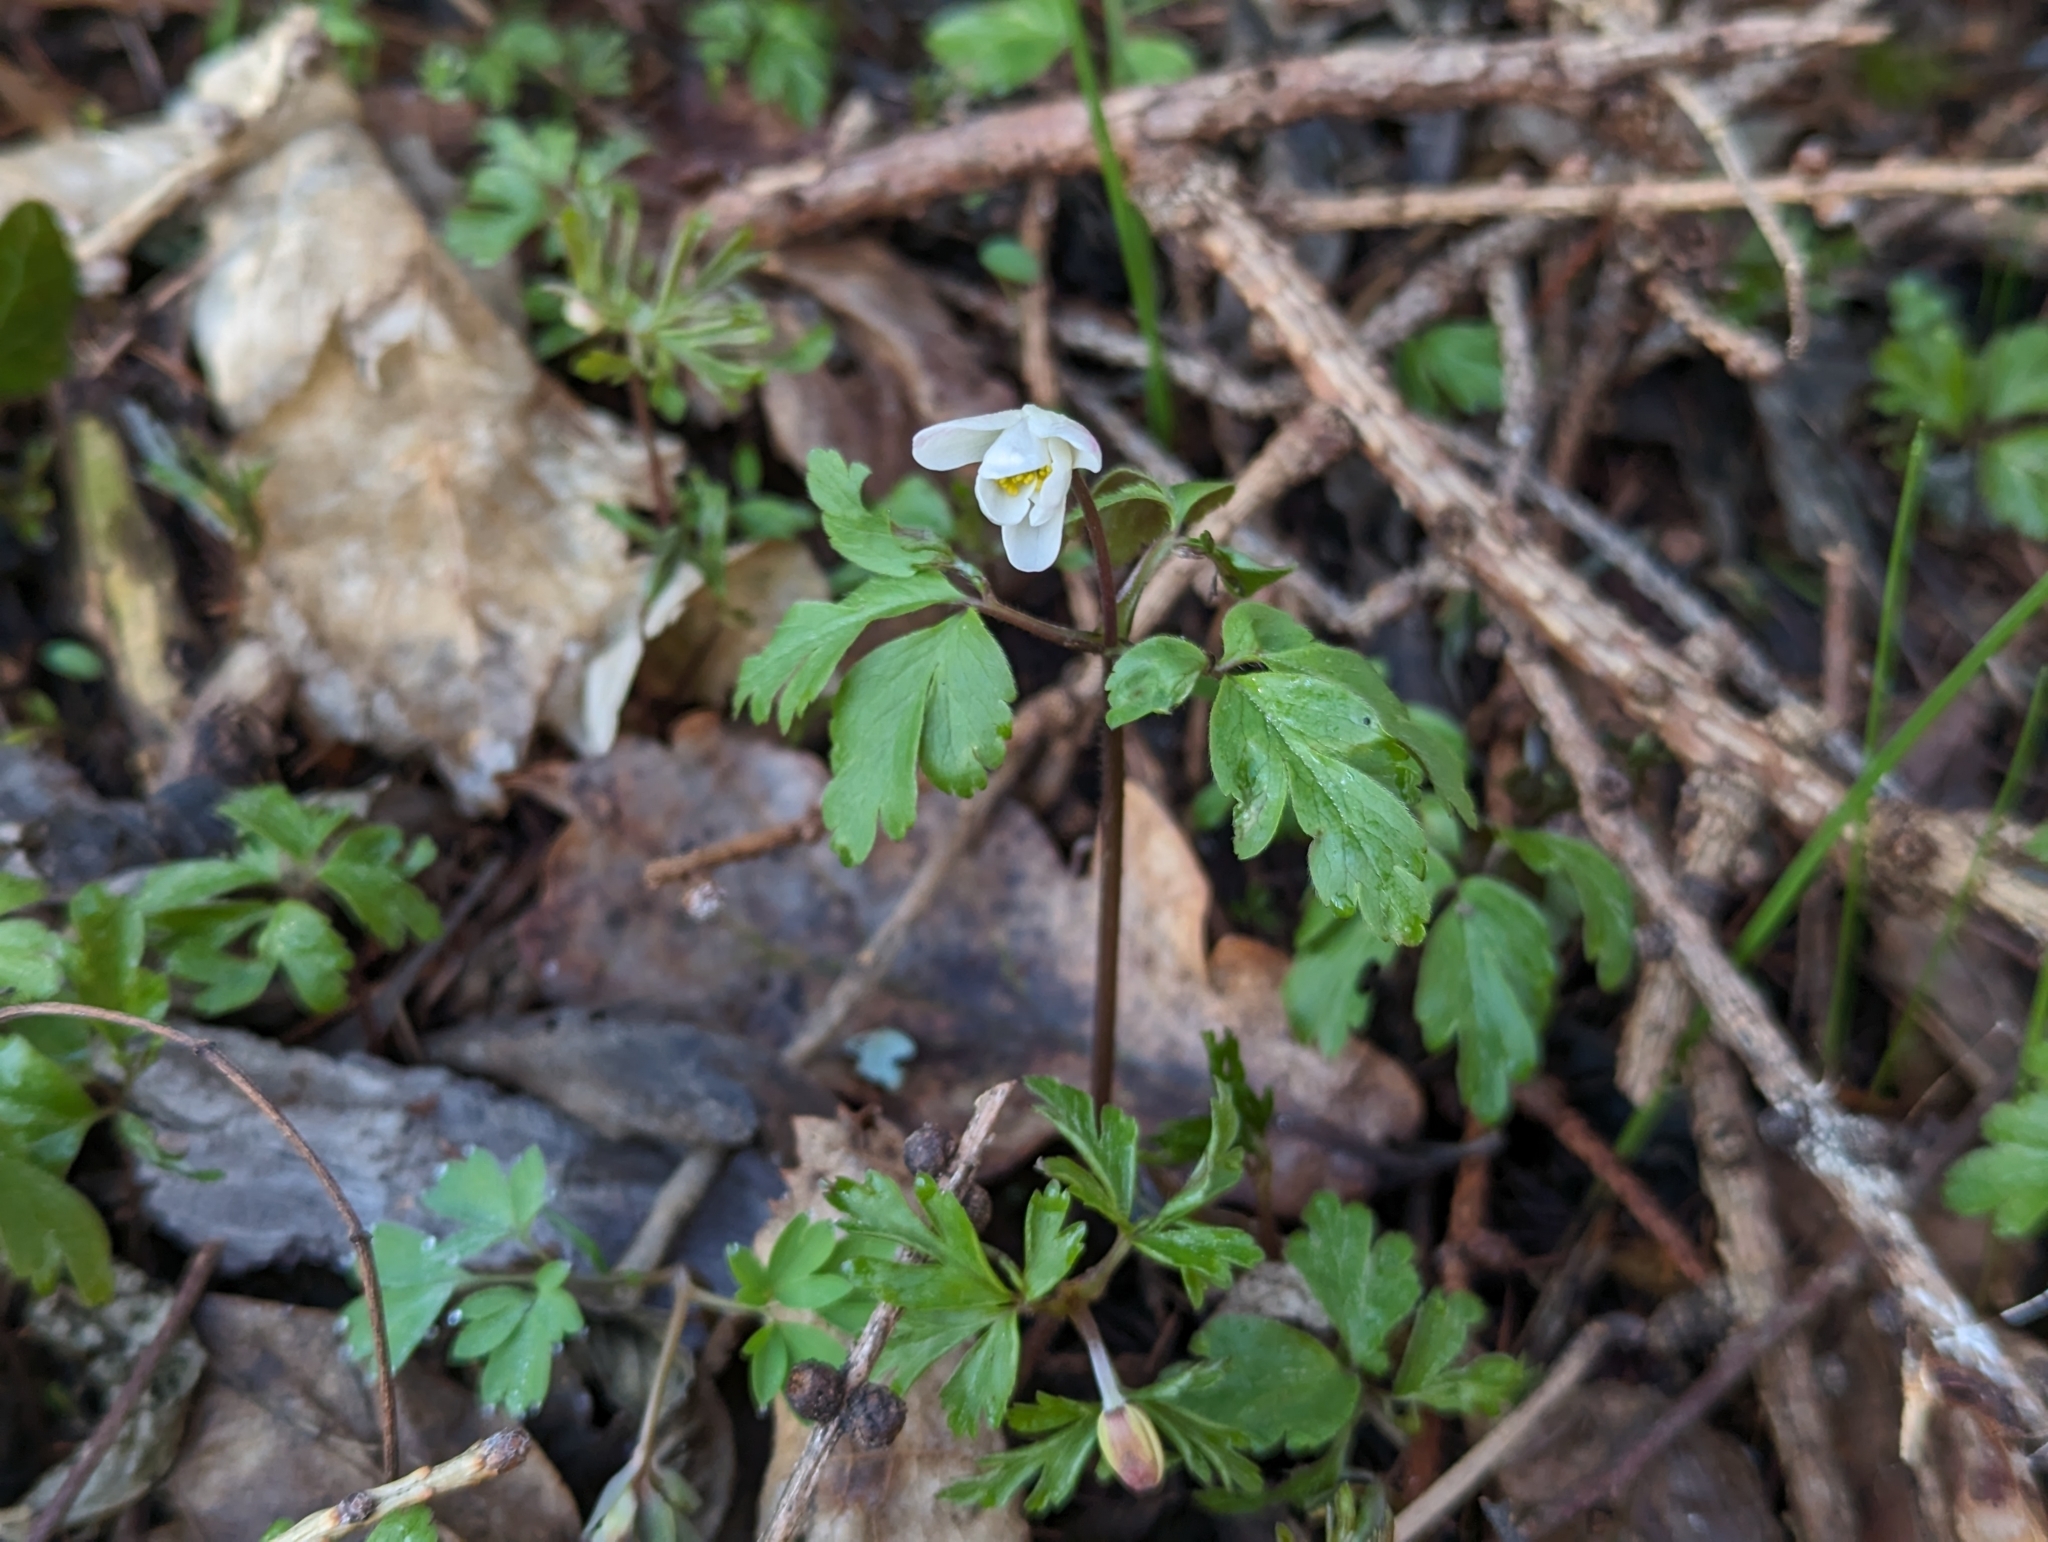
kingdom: Plantae
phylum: Tracheophyta
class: Magnoliopsida
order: Ranunculales
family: Ranunculaceae
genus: Anemone
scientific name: Anemone nemorosa
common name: Wood anemone
